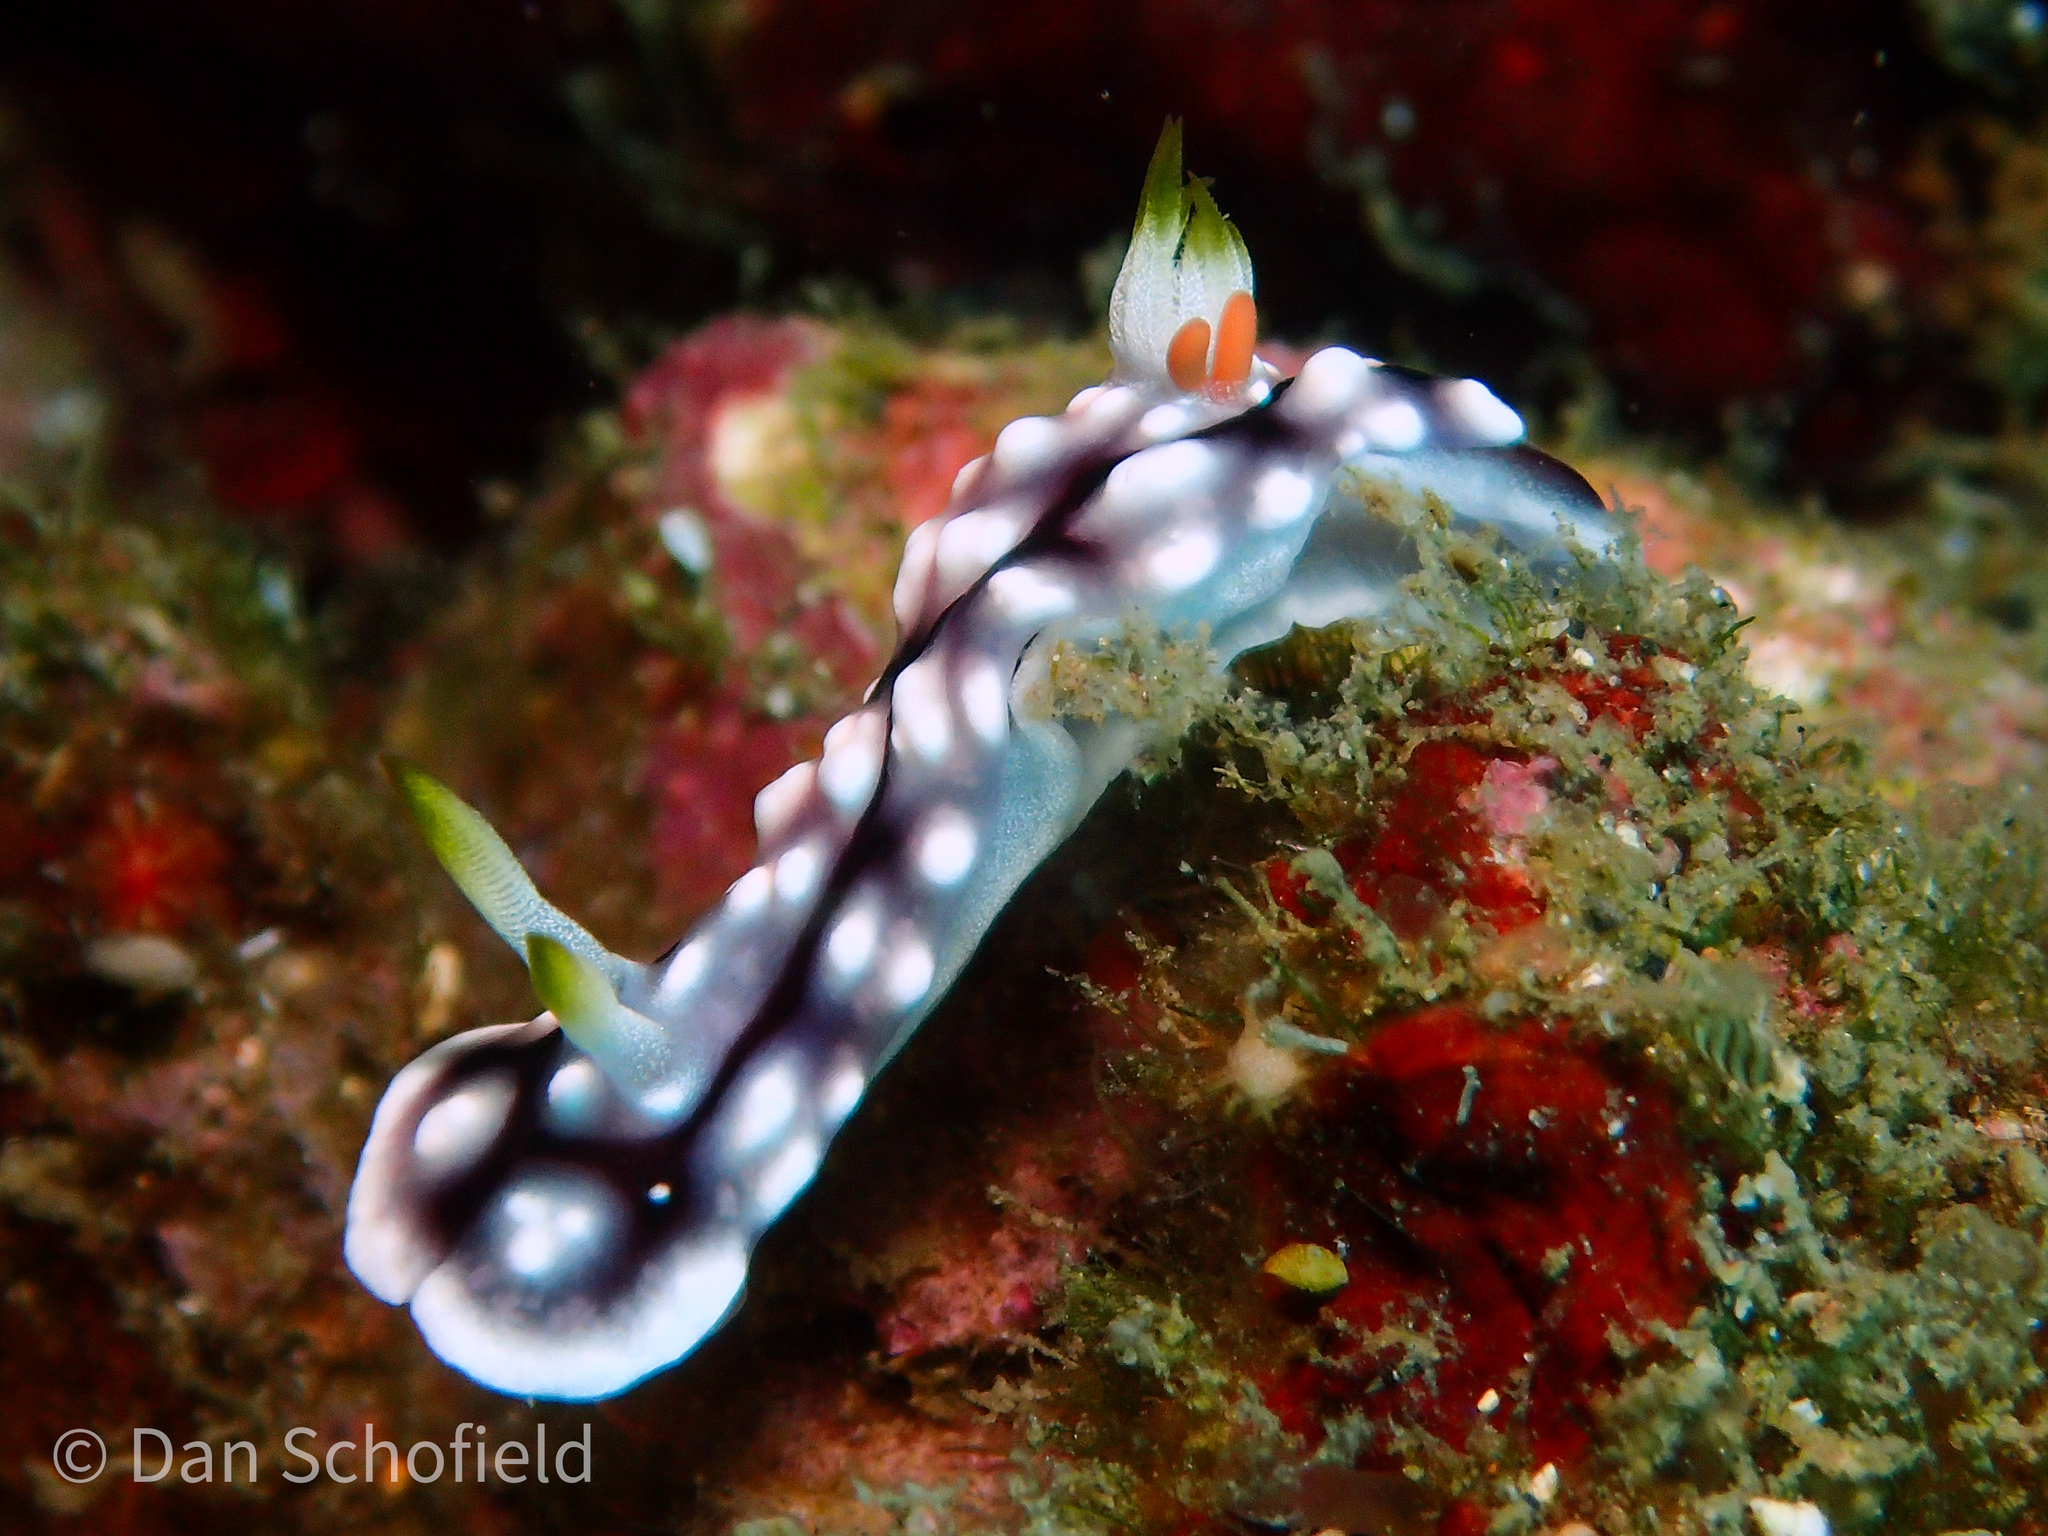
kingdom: Animalia
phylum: Mollusca
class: Gastropoda
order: Nudibranchia
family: Chromodorididae
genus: Goniobranchus
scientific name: Goniobranchus geometricus
